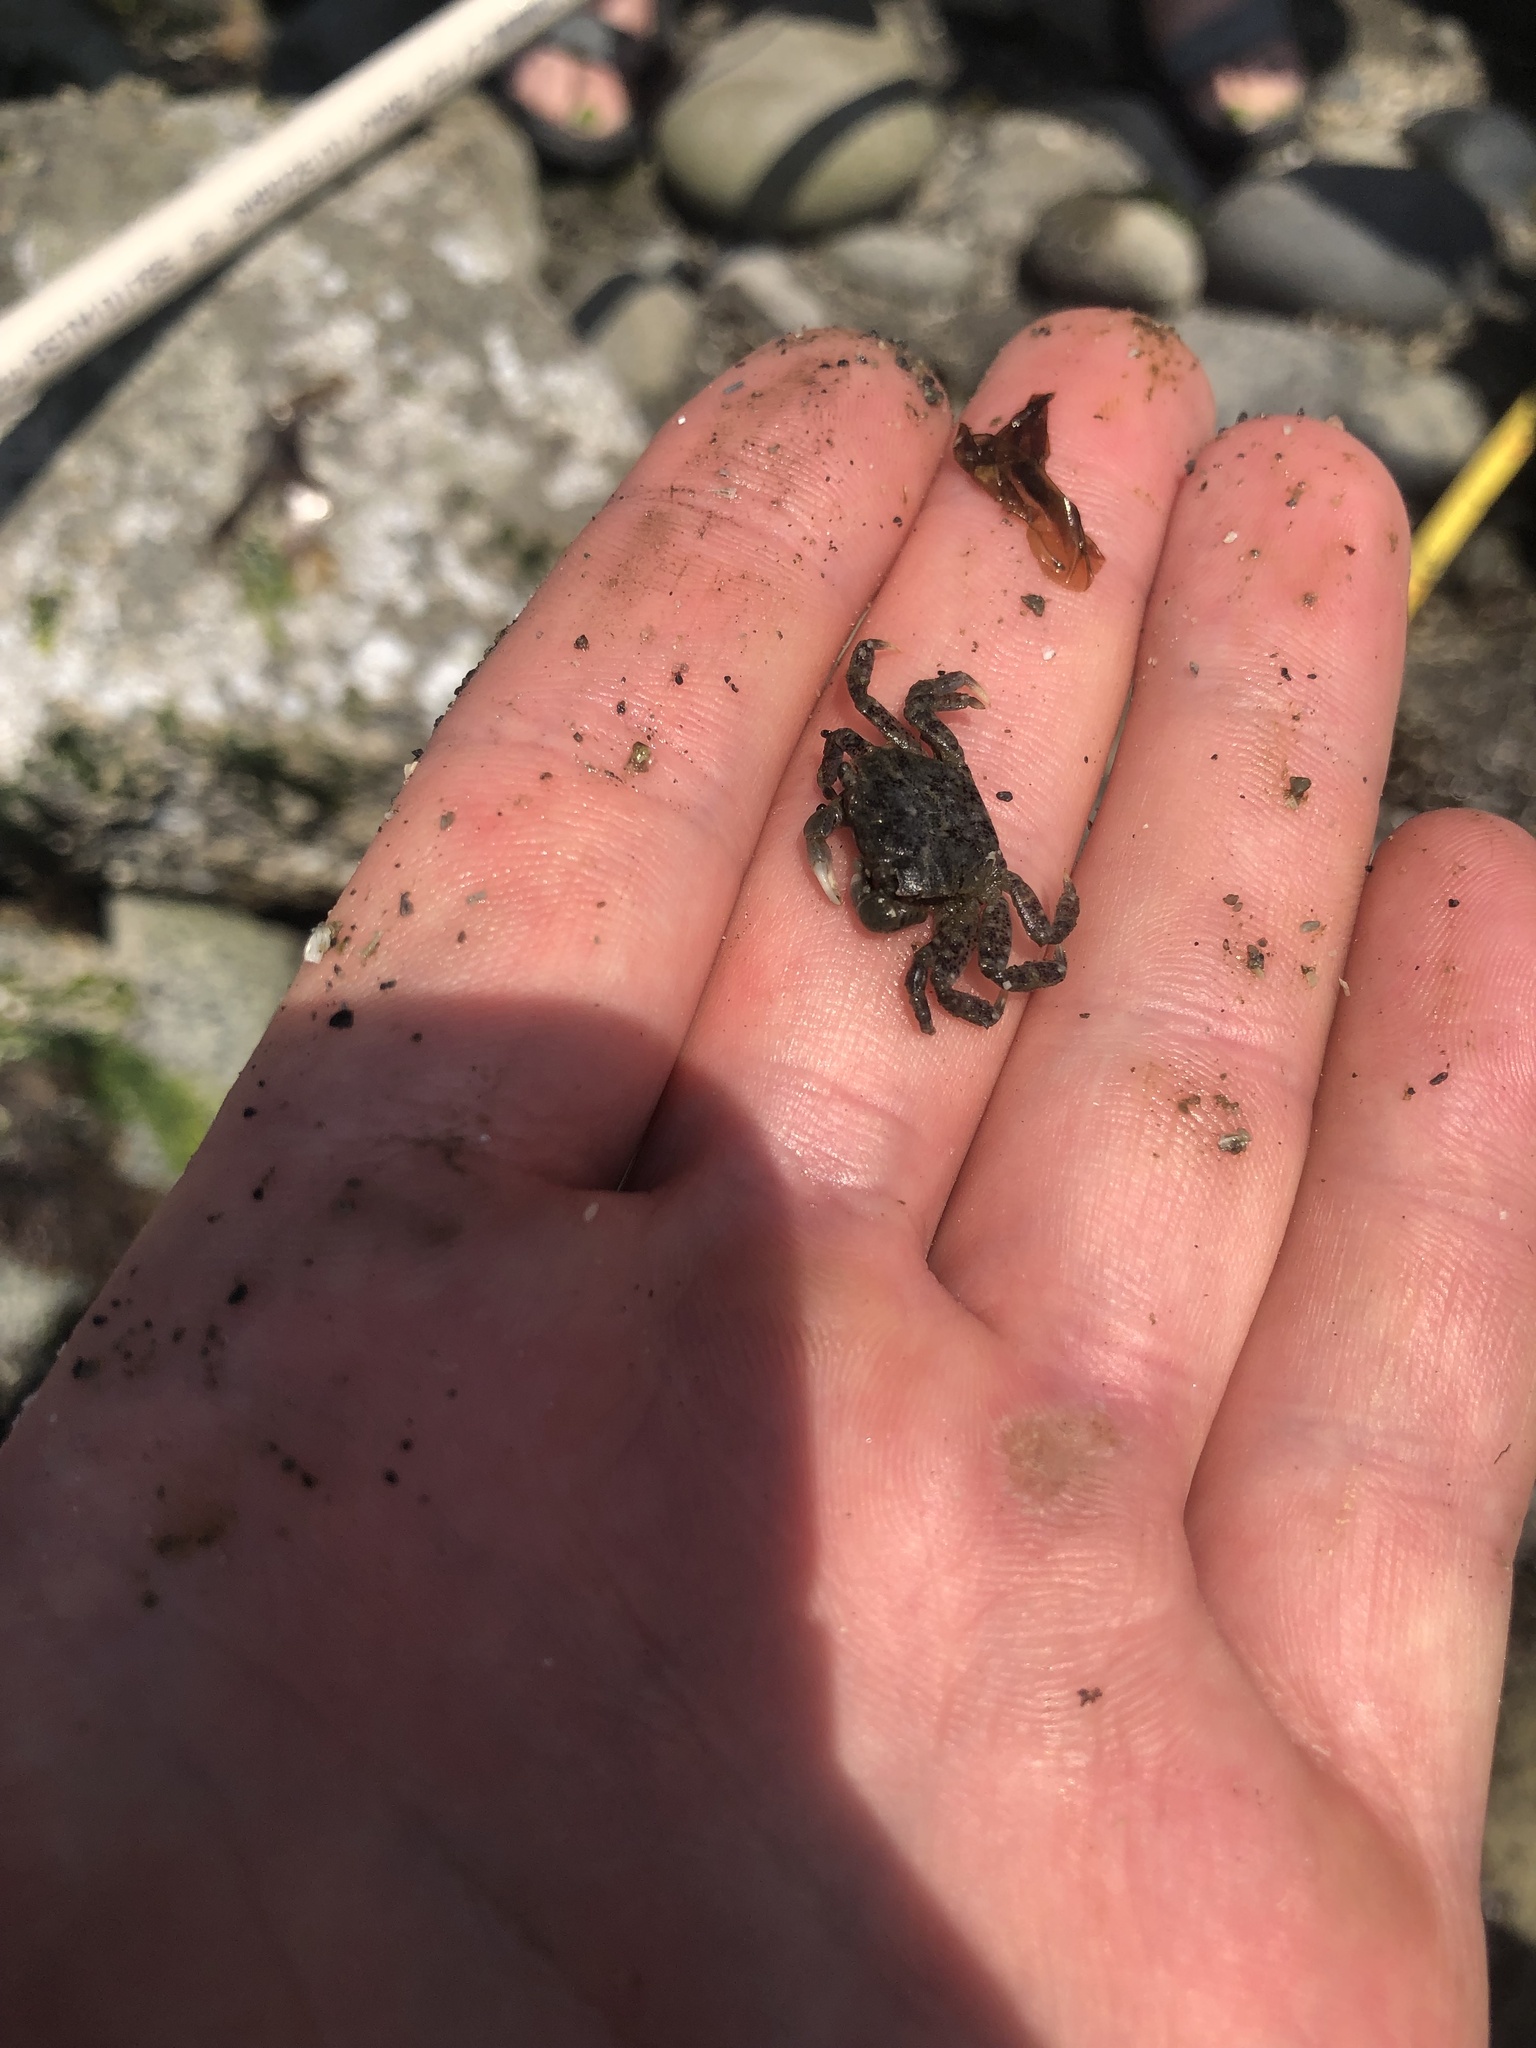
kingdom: Animalia
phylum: Arthropoda
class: Malacostraca
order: Decapoda
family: Varunidae
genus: Hemigrapsus
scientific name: Hemigrapsus oregonensis
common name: Yellow shore crab
